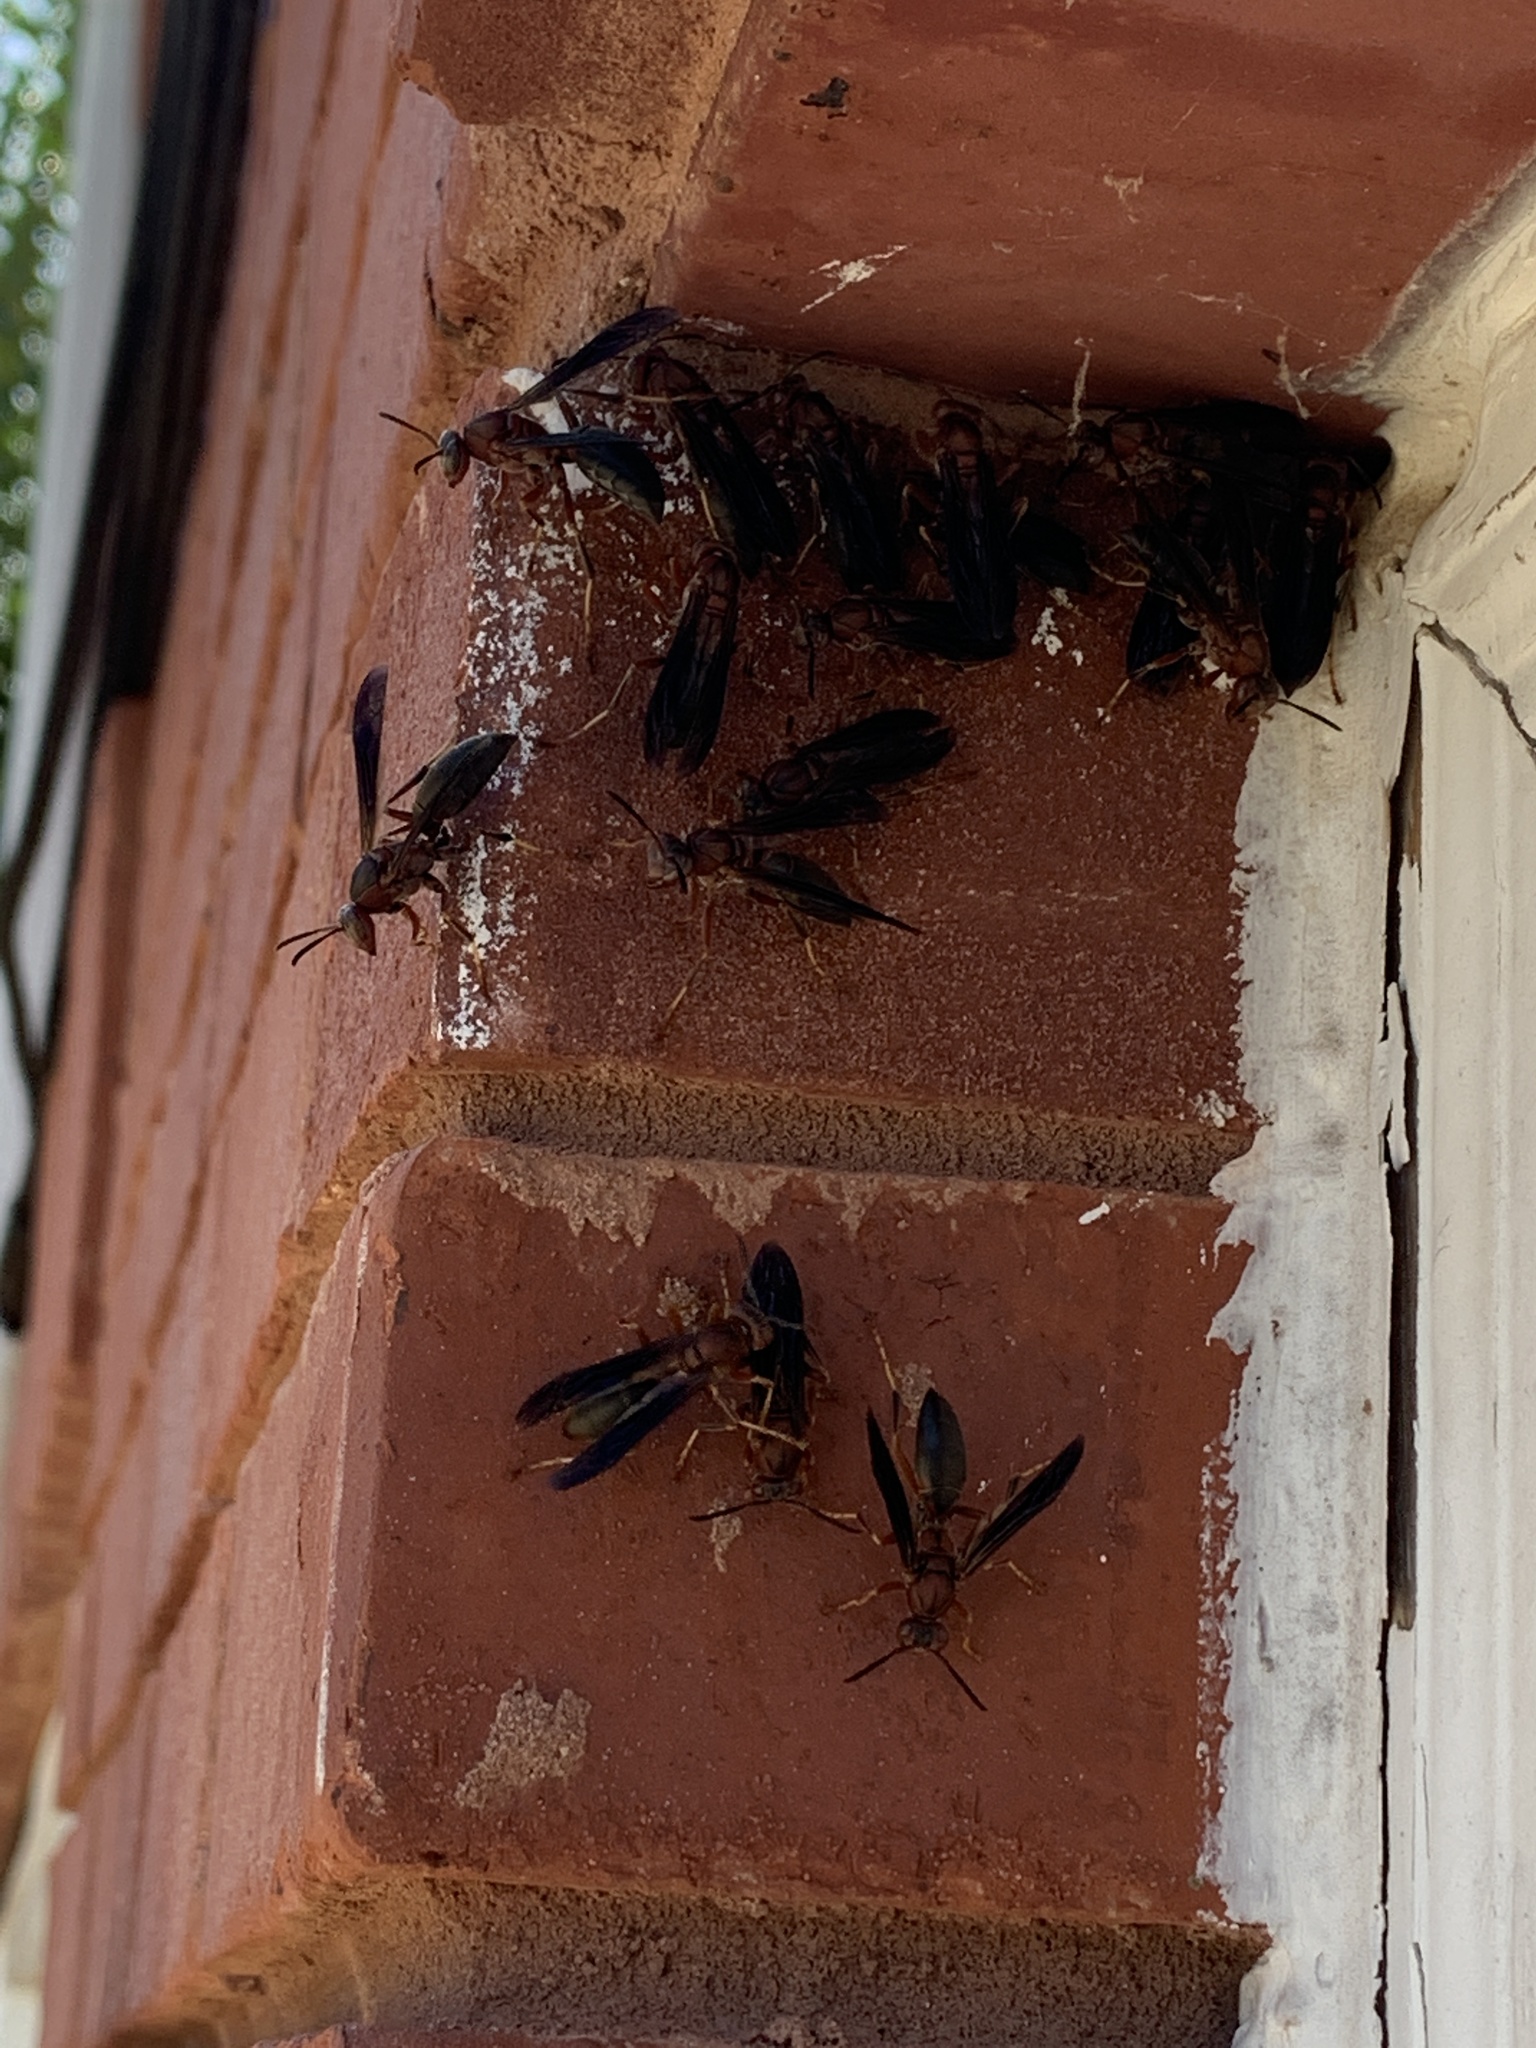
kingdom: Animalia
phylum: Arthropoda
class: Insecta
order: Hymenoptera
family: Eumenidae
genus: Polistes
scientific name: Polistes metricus
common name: Metric paper wasp
